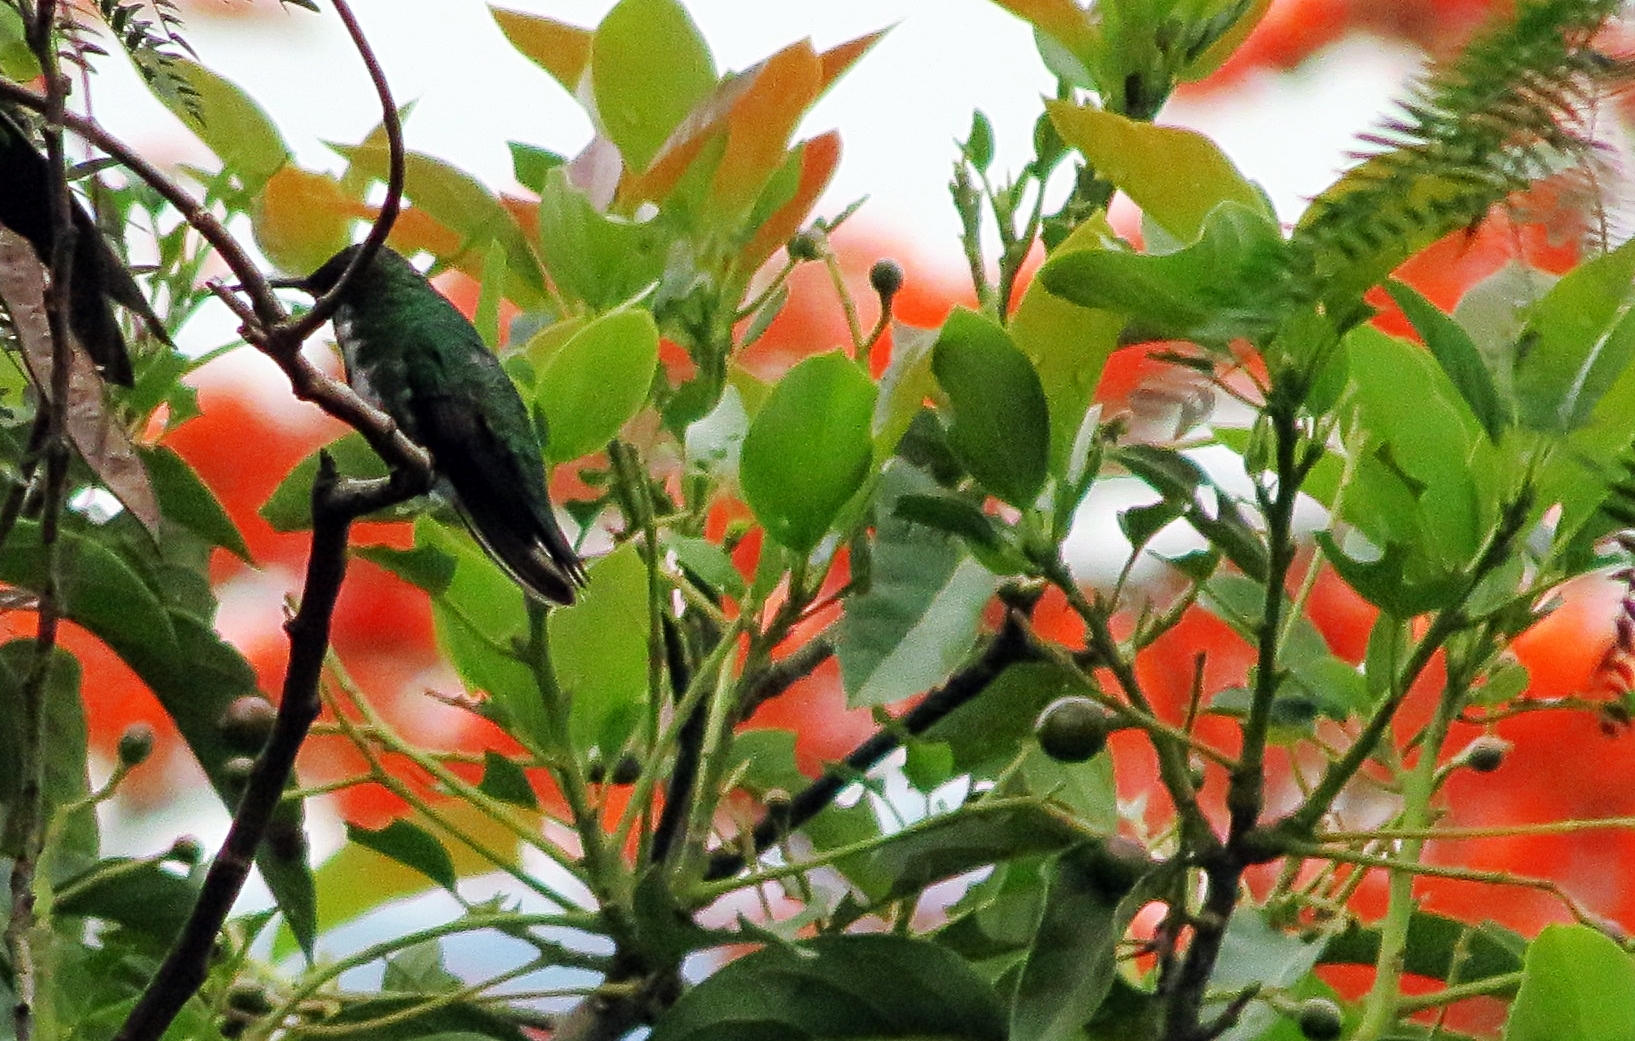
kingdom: Animalia
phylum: Chordata
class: Aves
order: Apodiformes
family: Trochilidae
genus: Anthracothorax
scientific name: Anthracothorax nigricollis
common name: Black-throated mango
